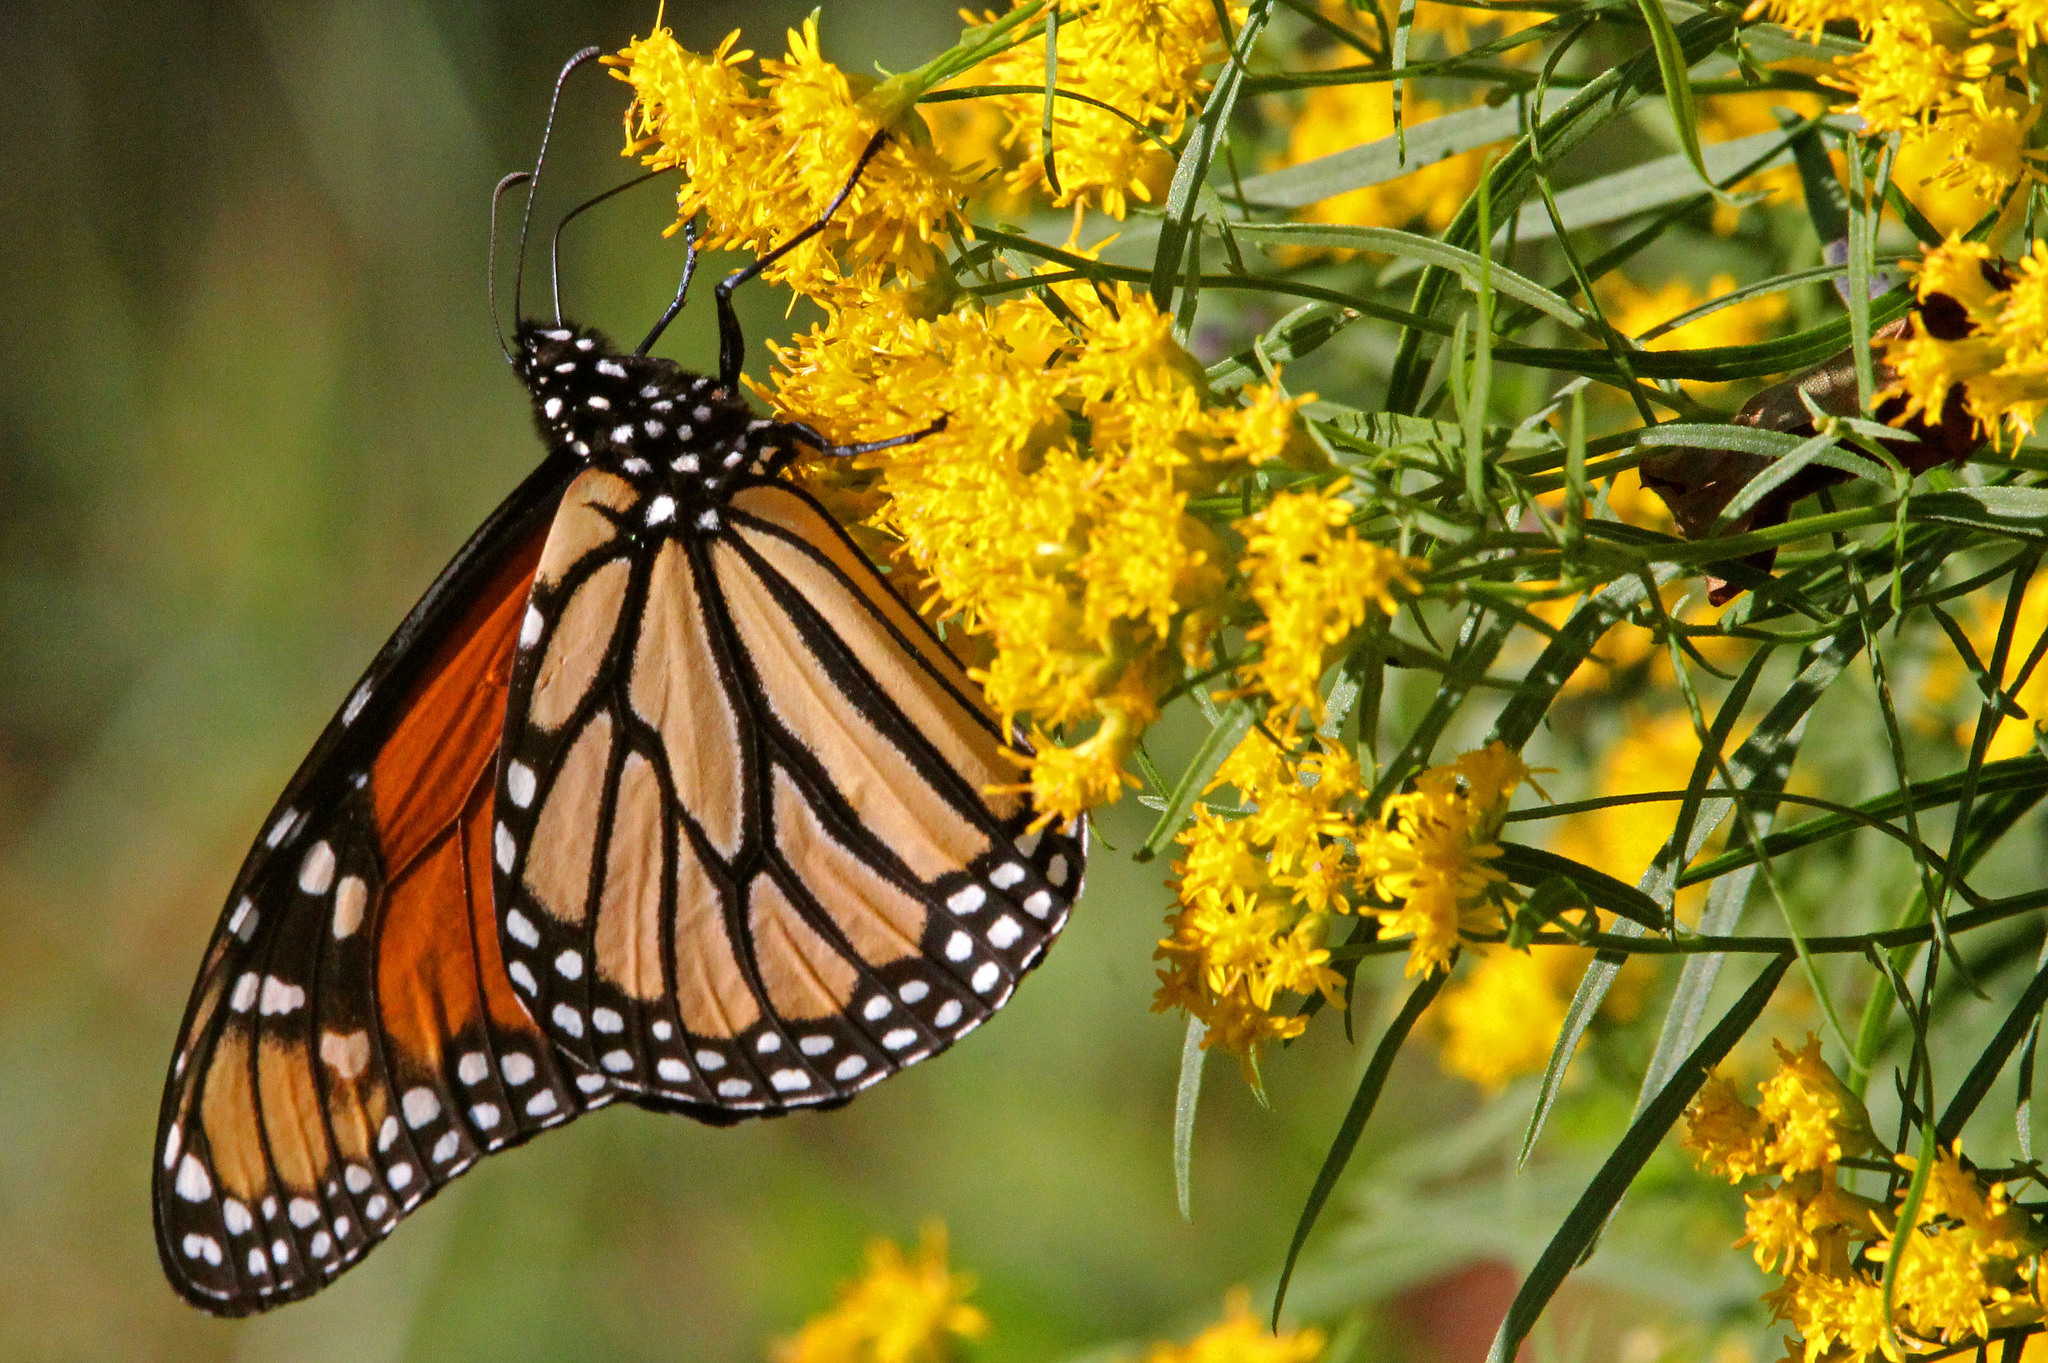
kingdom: Animalia
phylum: Arthropoda
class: Insecta
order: Lepidoptera
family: Nymphalidae
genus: Danaus
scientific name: Danaus plexippus
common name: Monarch
